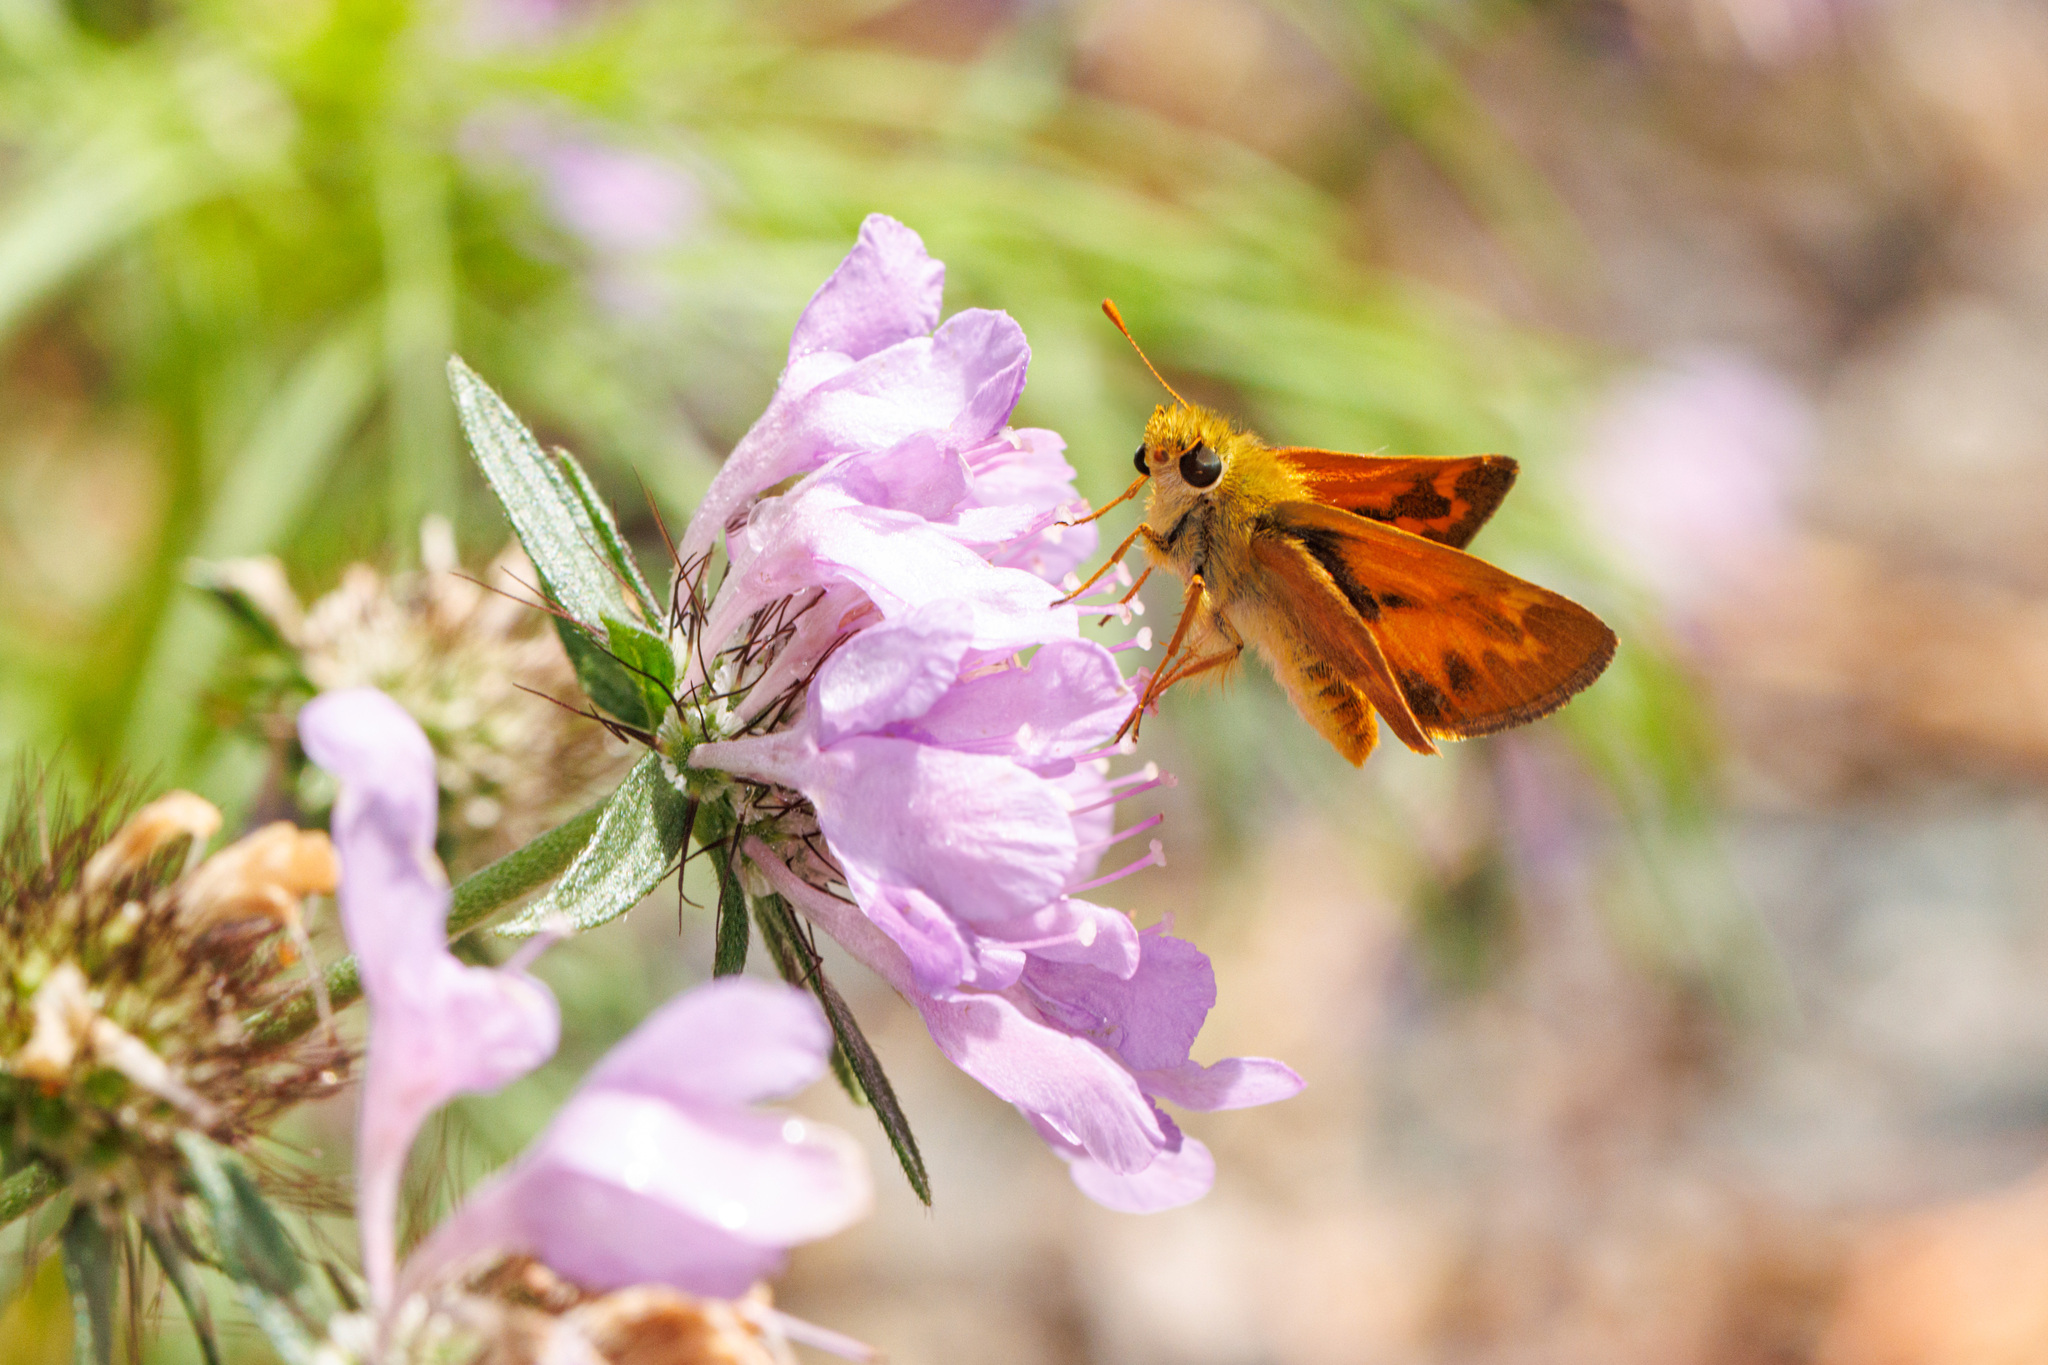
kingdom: Animalia
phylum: Arthropoda
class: Insecta
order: Lepidoptera
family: Hesperiidae
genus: Ochlodes
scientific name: Ochlodes sylvanoides
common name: Woodland skipper
